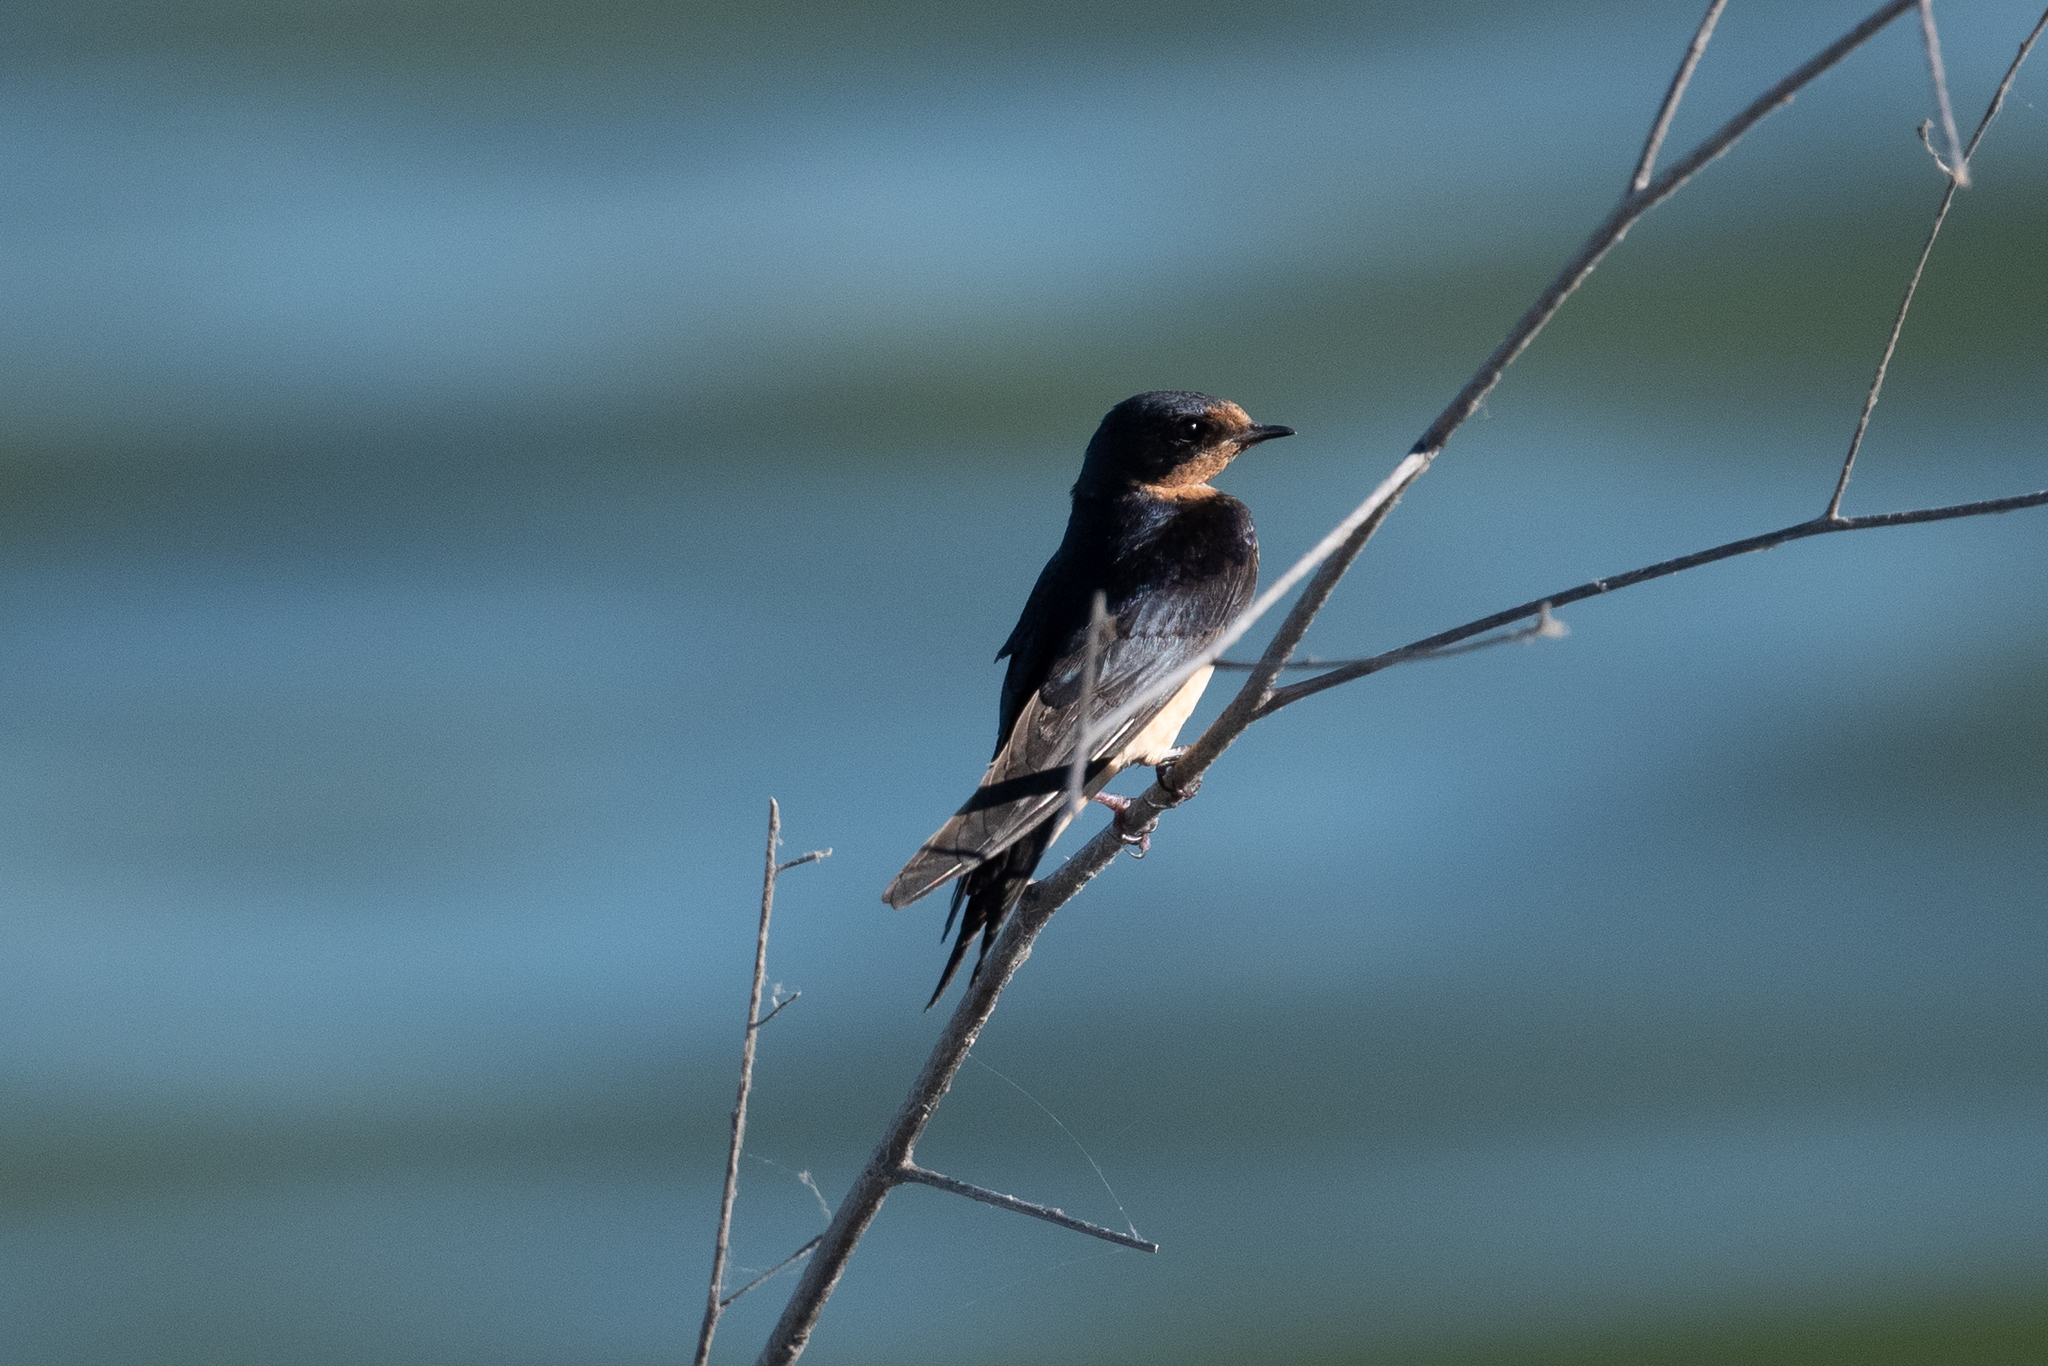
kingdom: Animalia
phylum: Chordata
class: Aves
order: Passeriformes
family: Hirundinidae
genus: Hirundo
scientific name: Hirundo rustica
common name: Barn swallow
